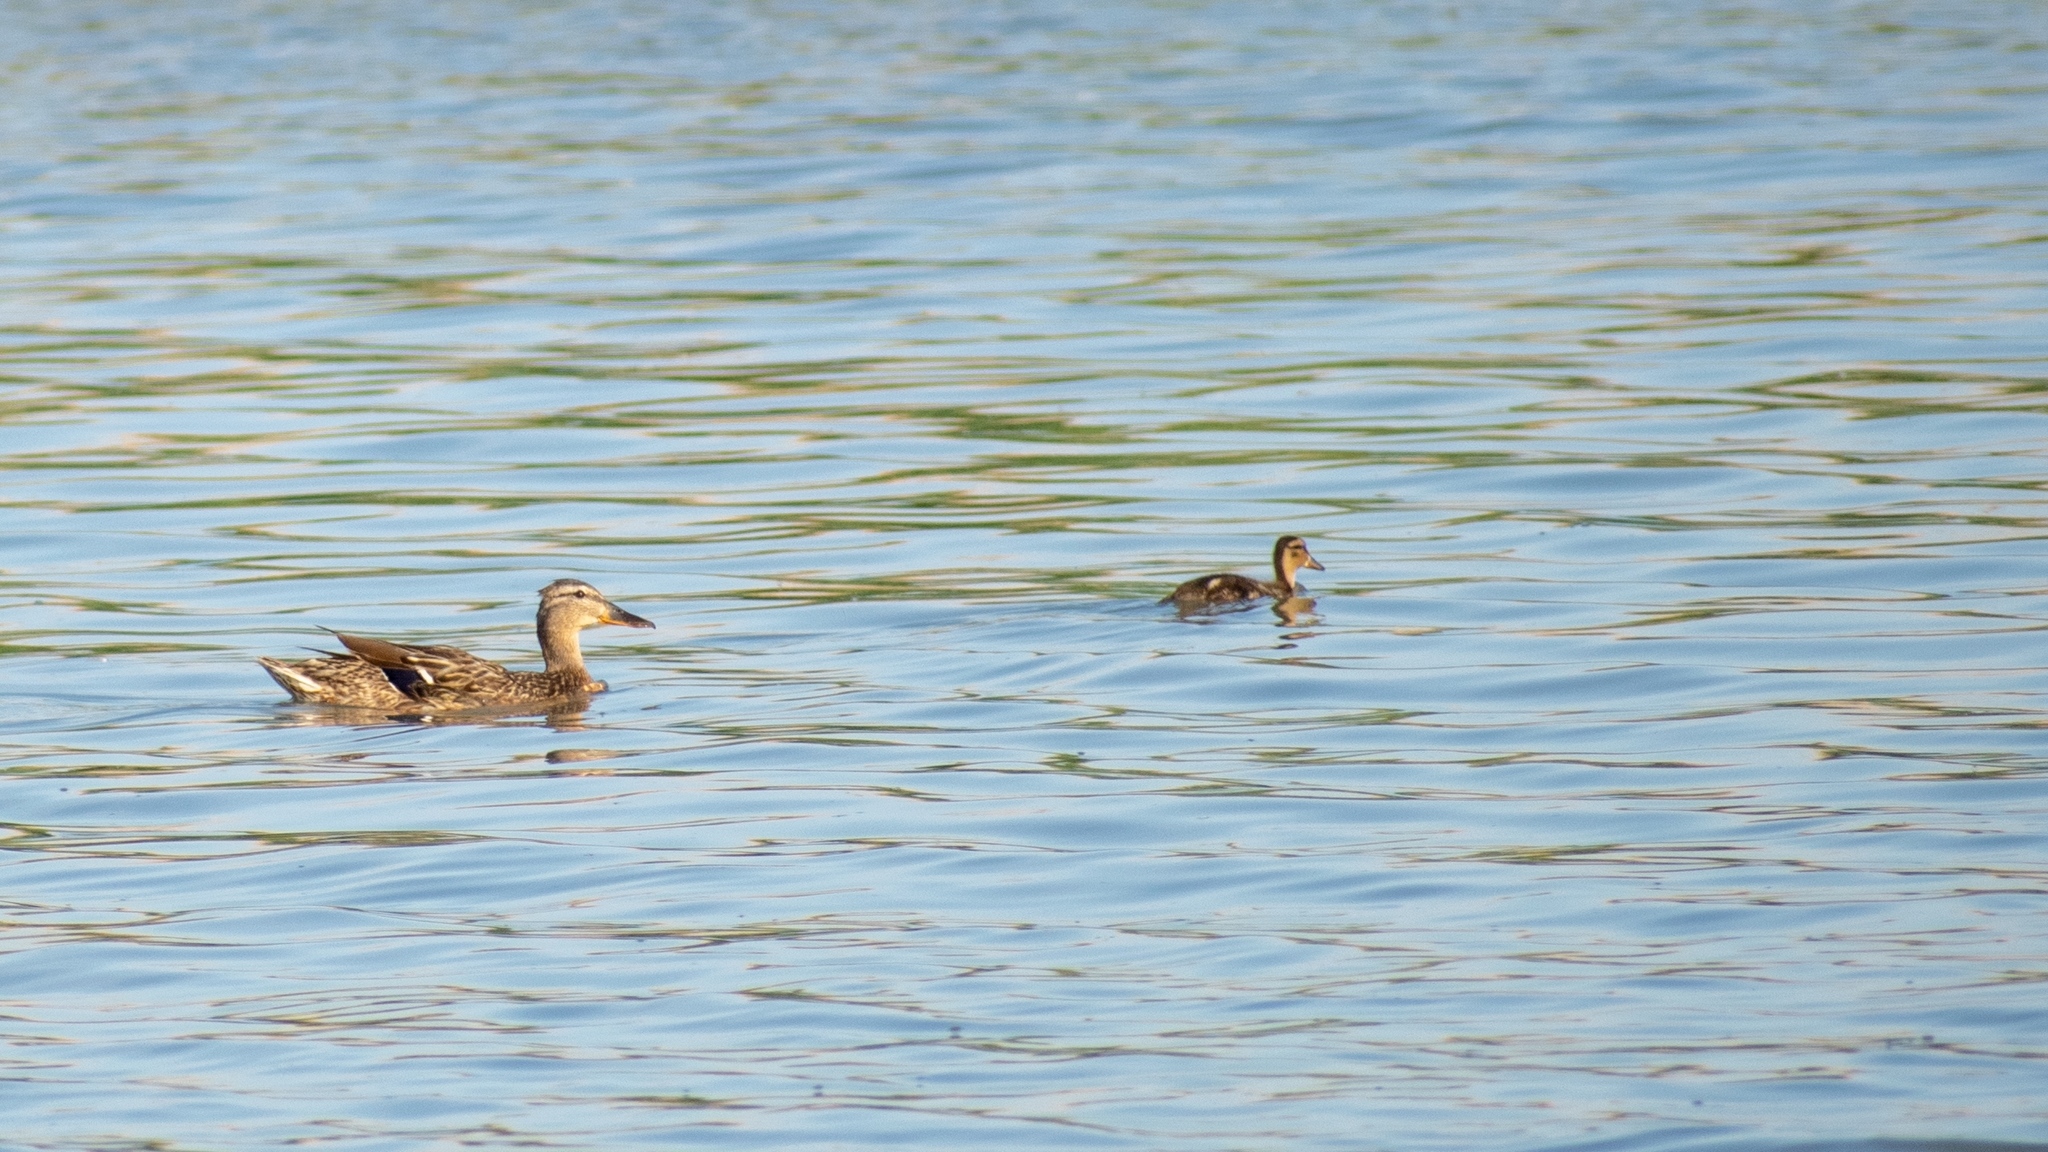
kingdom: Animalia
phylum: Chordata
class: Aves
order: Anseriformes
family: Anatidae
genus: Anas
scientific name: Anas platyrhynchos
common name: Mallard
